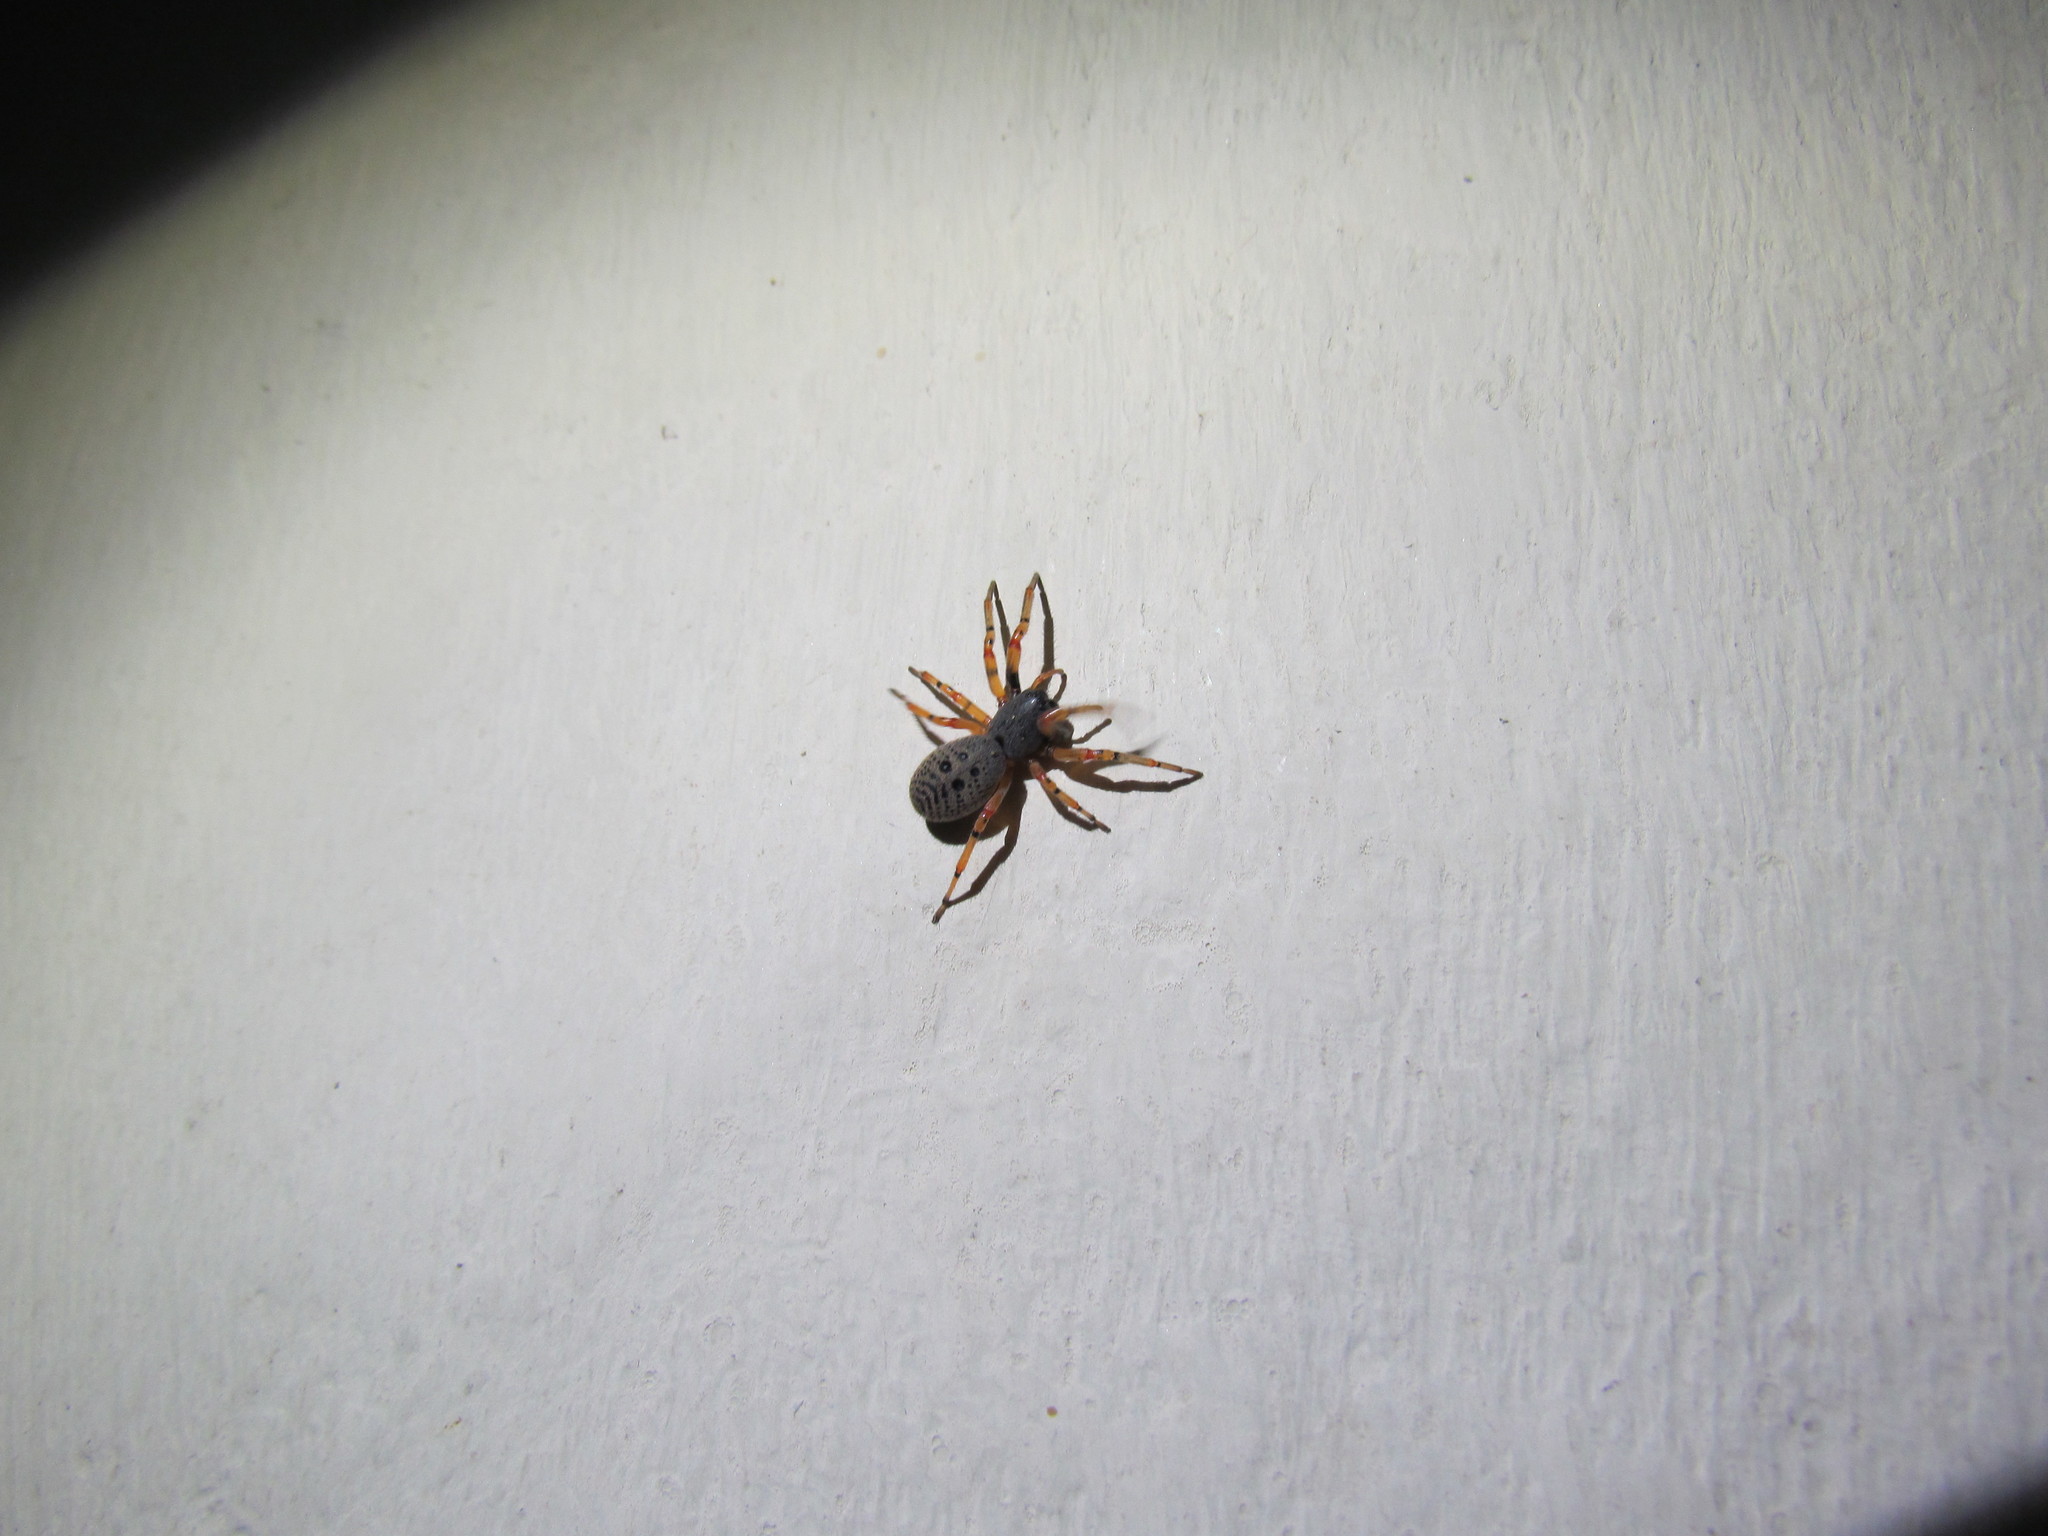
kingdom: Animalia
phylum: Arthropoda
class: Arachnida
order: Araneae
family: Trachelidae
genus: Trachelopachys
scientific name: Trachelopachys
